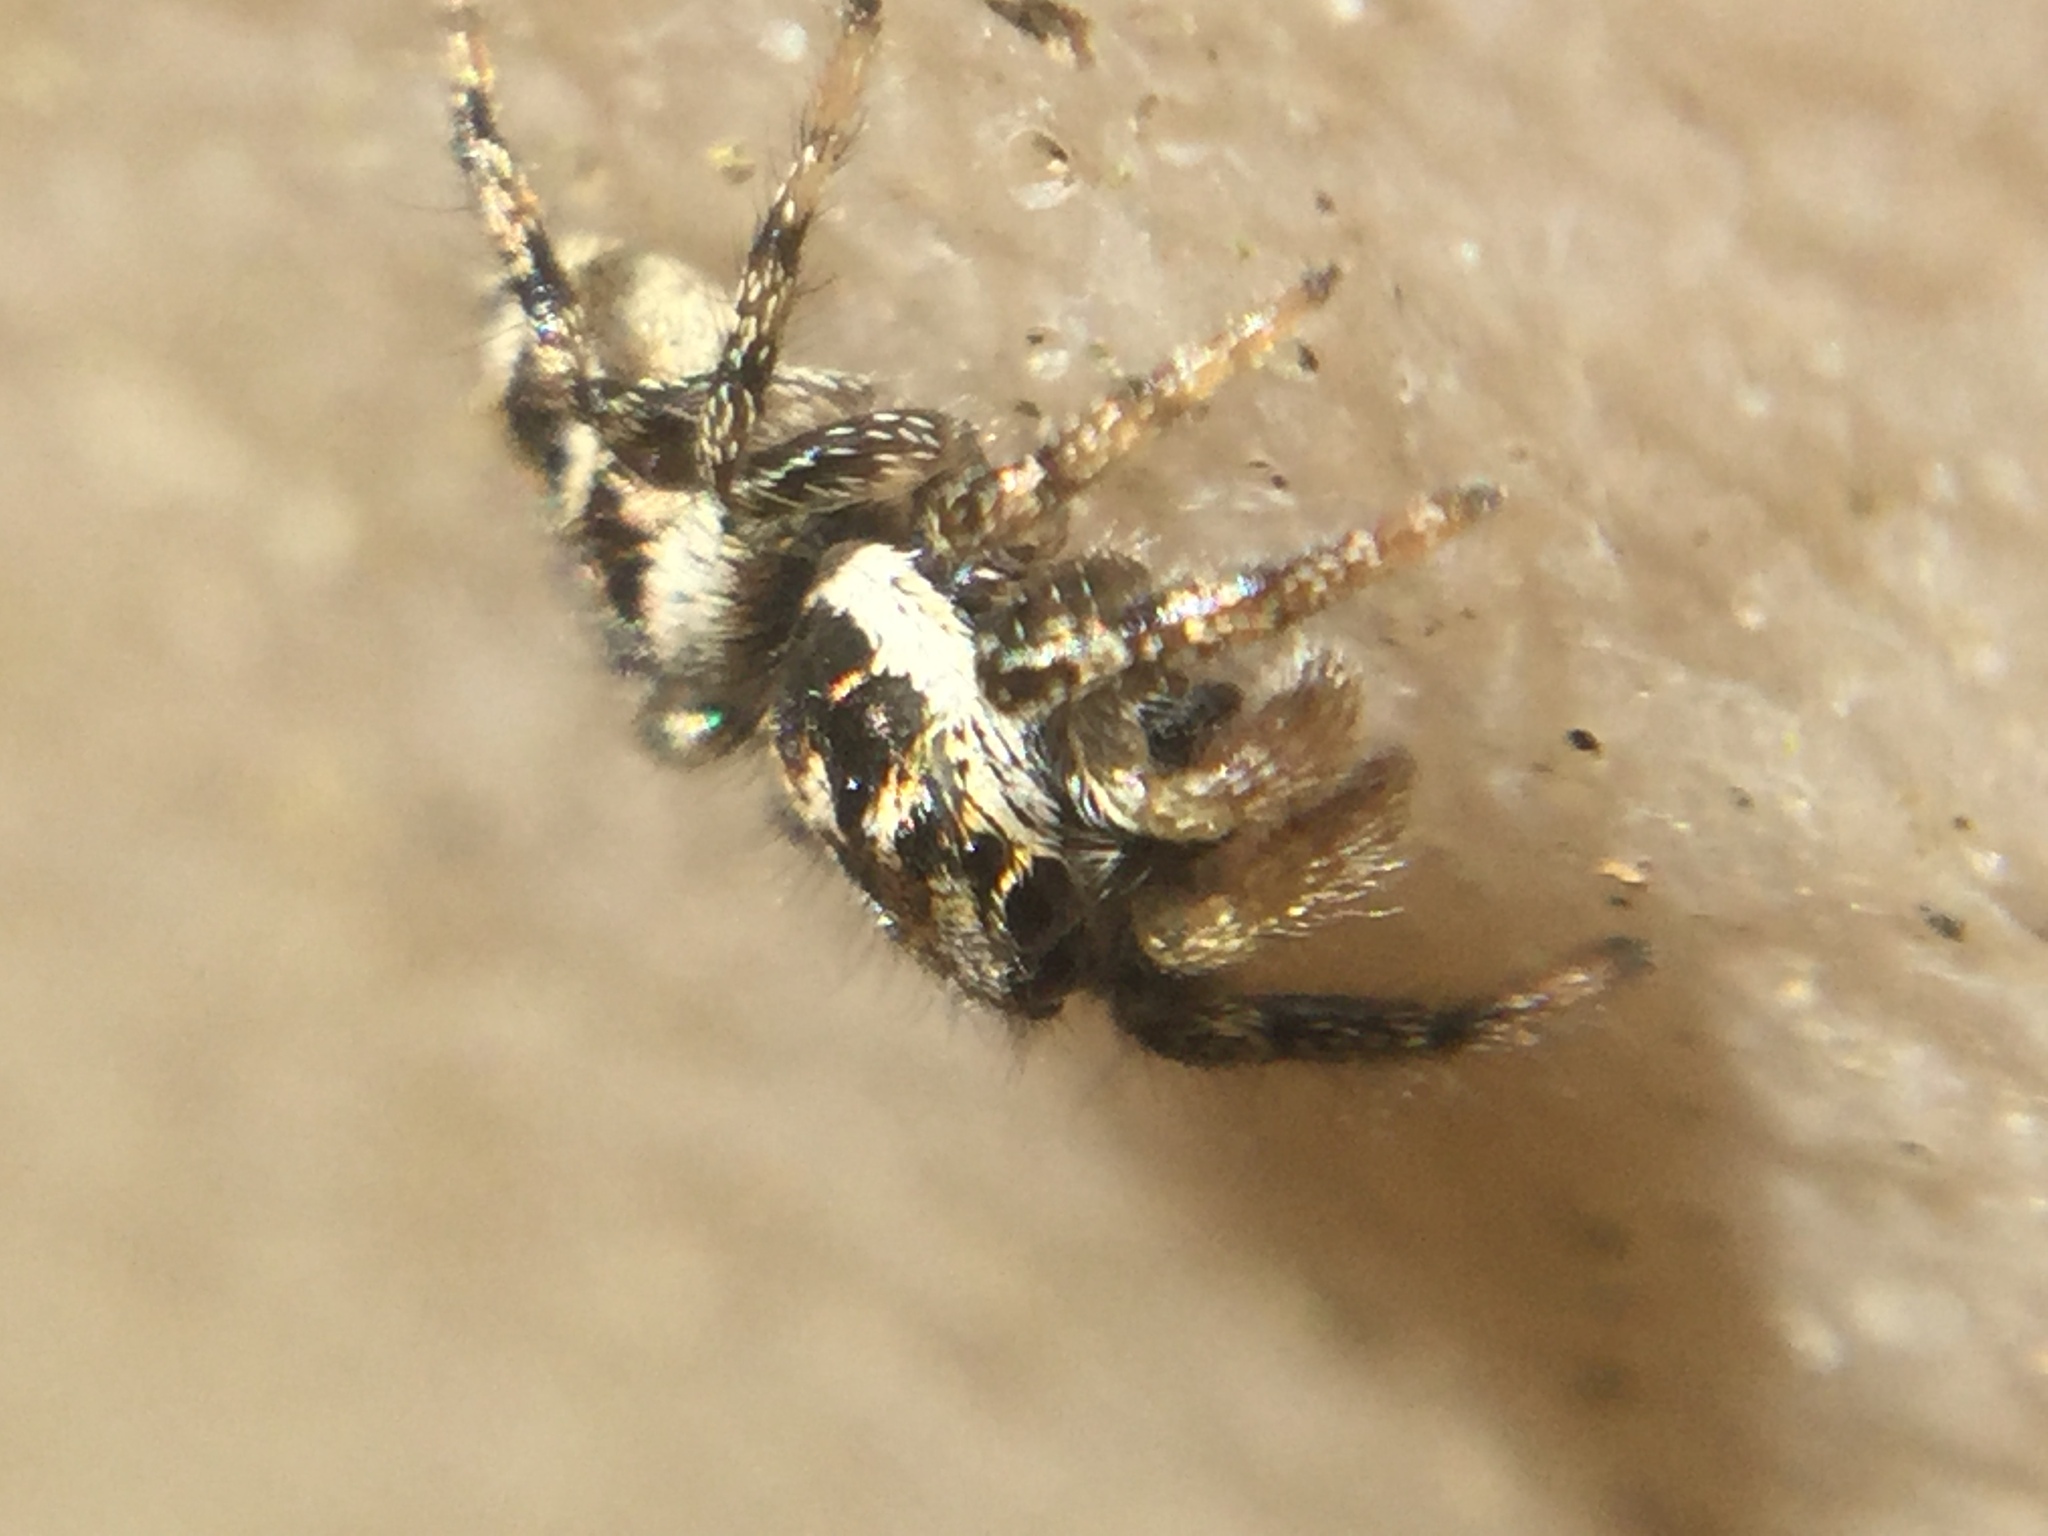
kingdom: Animalia
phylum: Arthropoda
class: Arachnida
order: Araneae
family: Salticidae
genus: Salticus
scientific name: Salticus scenicus
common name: Zebra jumper
